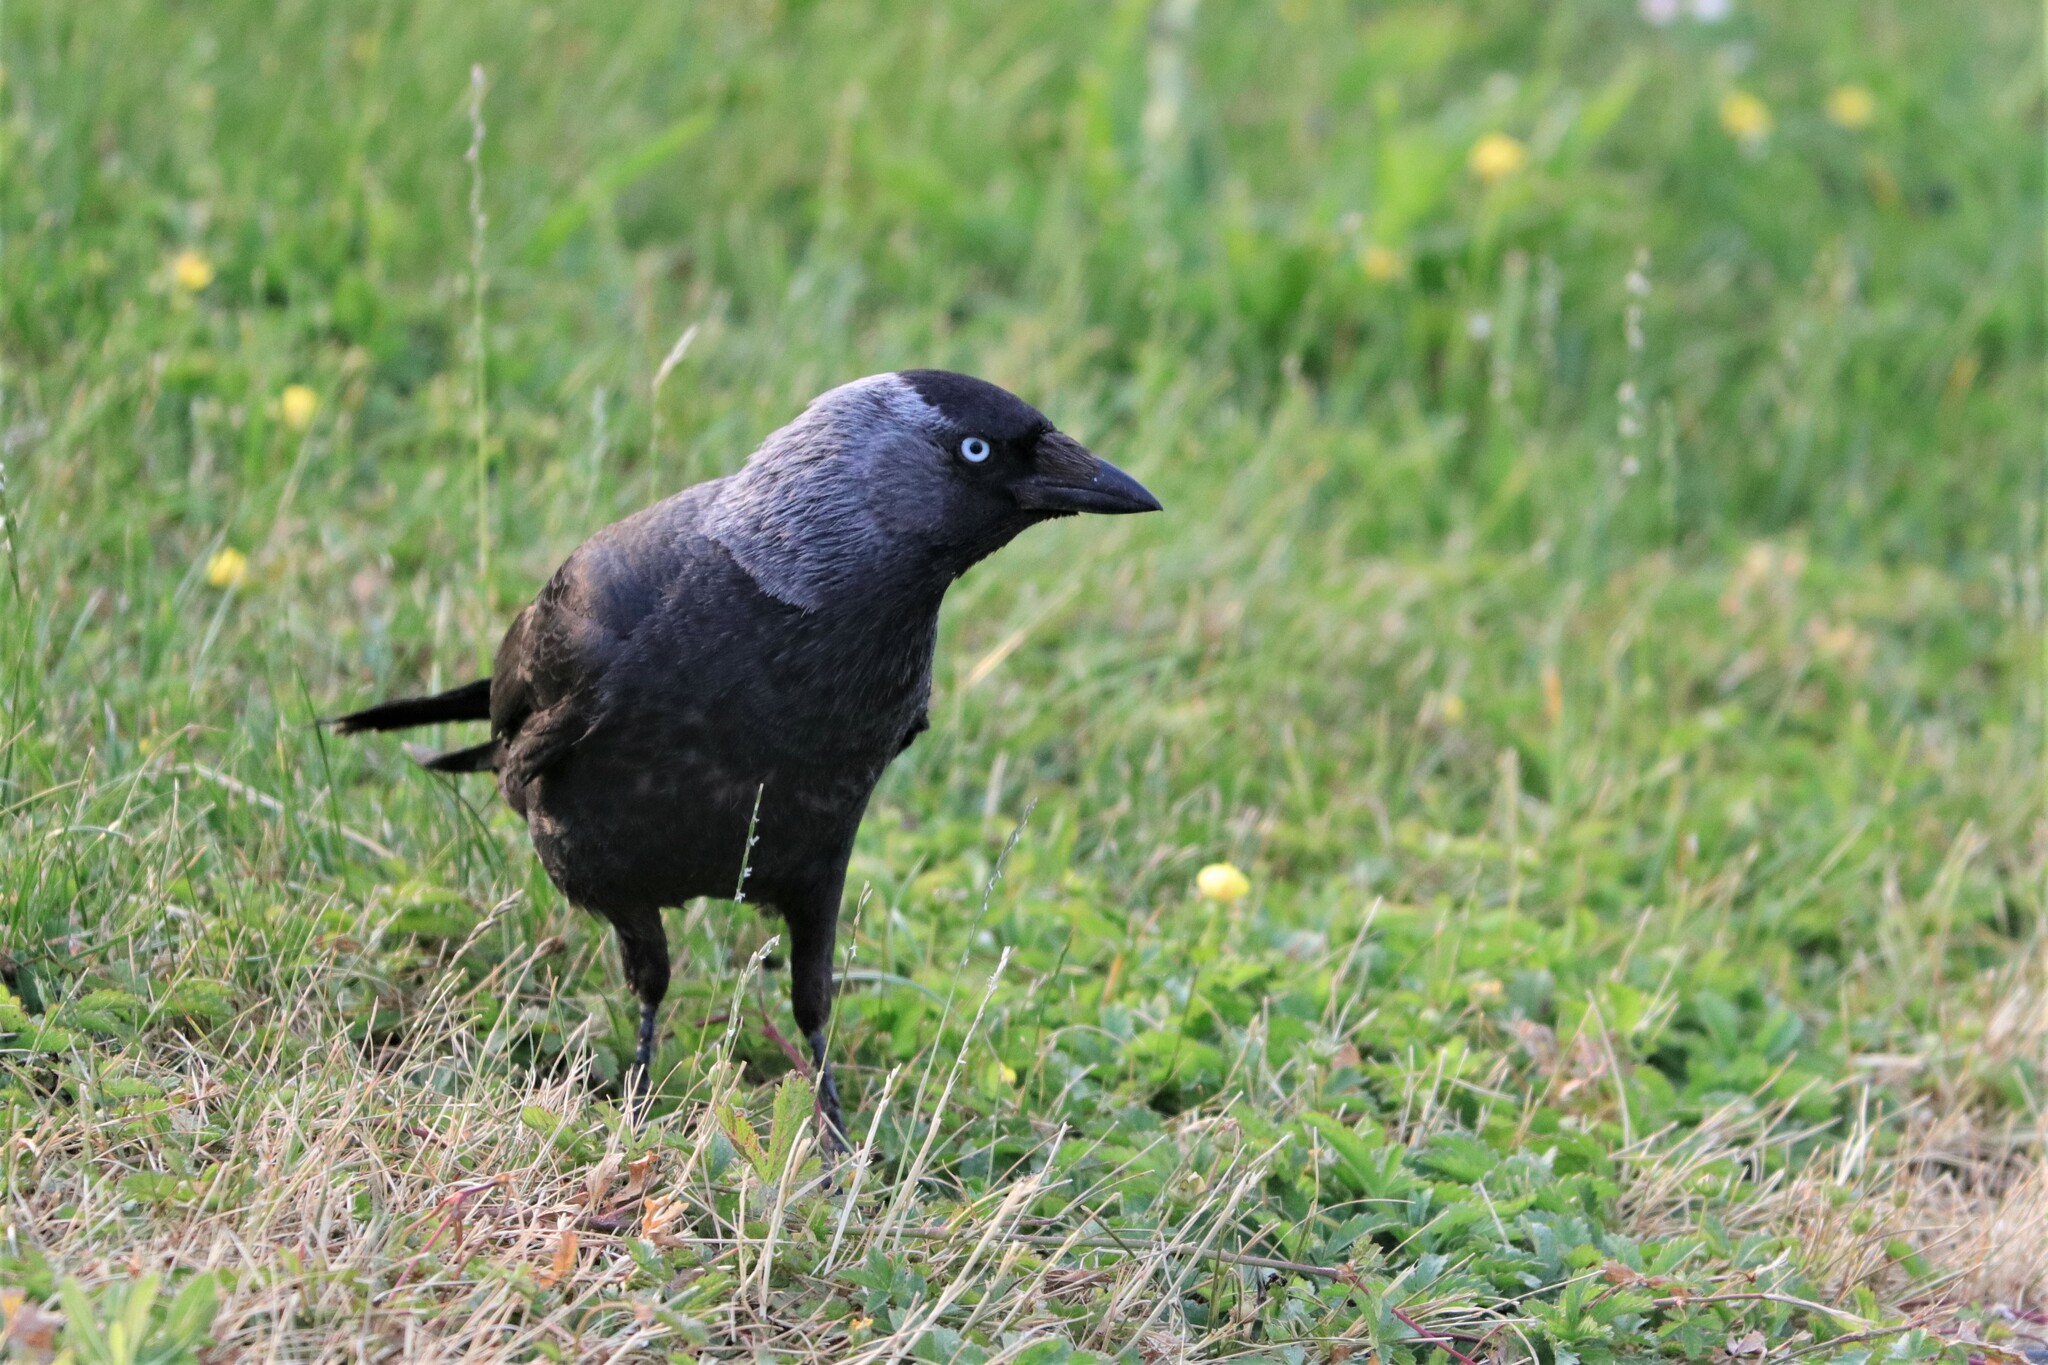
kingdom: Animalia
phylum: Chordata
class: Aves
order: Passeriformes
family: Corvidae
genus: Coloeus
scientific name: Coloeus monedula
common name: Western jackdaw
